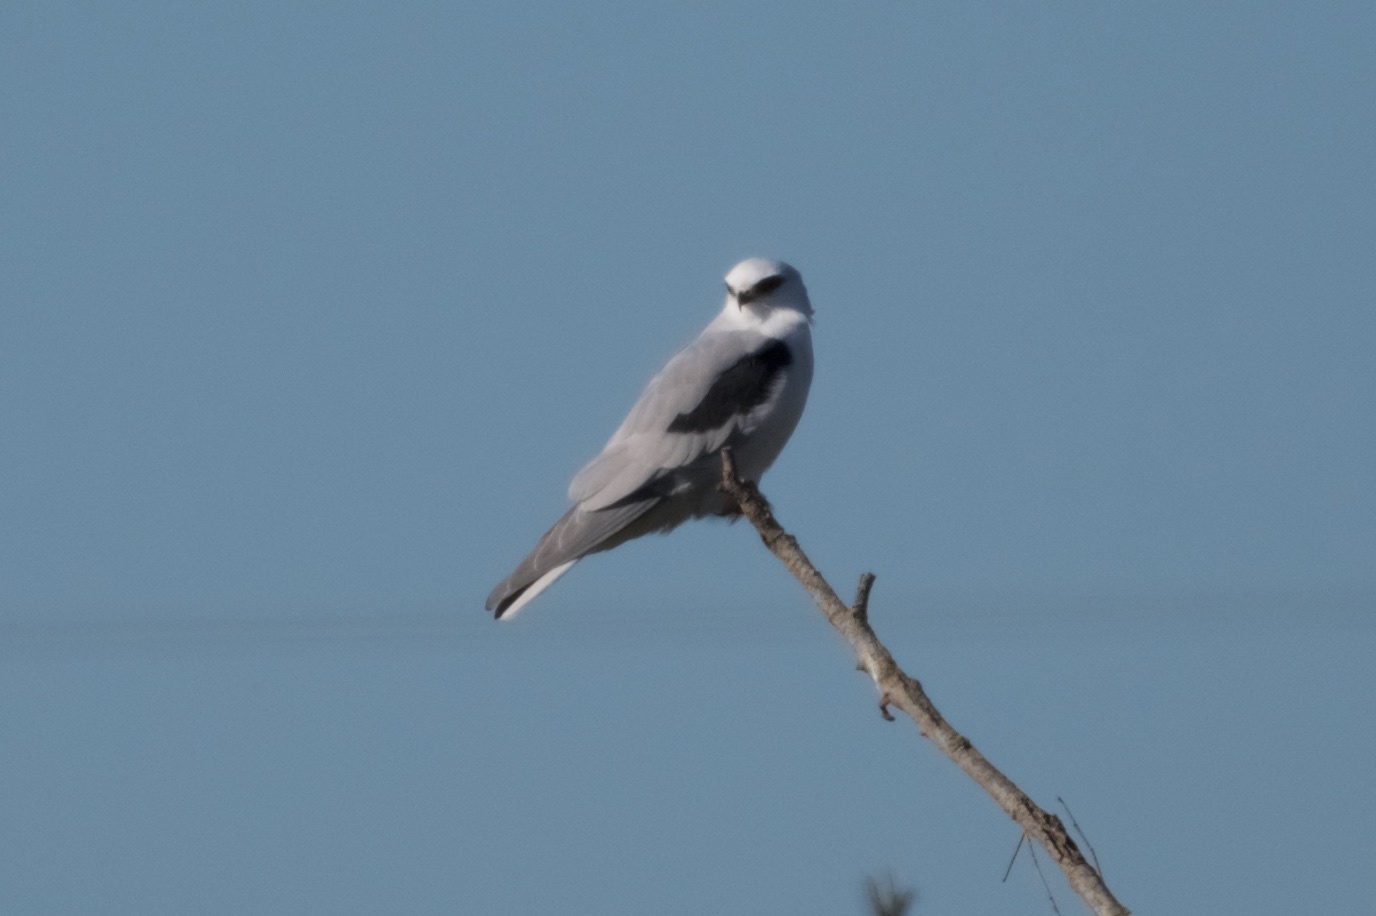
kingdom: Animalia
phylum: Chordata
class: Aves
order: Accipitriformes
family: Accipitridae
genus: Elanus
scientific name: Elanus leucurus
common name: White-tailed kite
